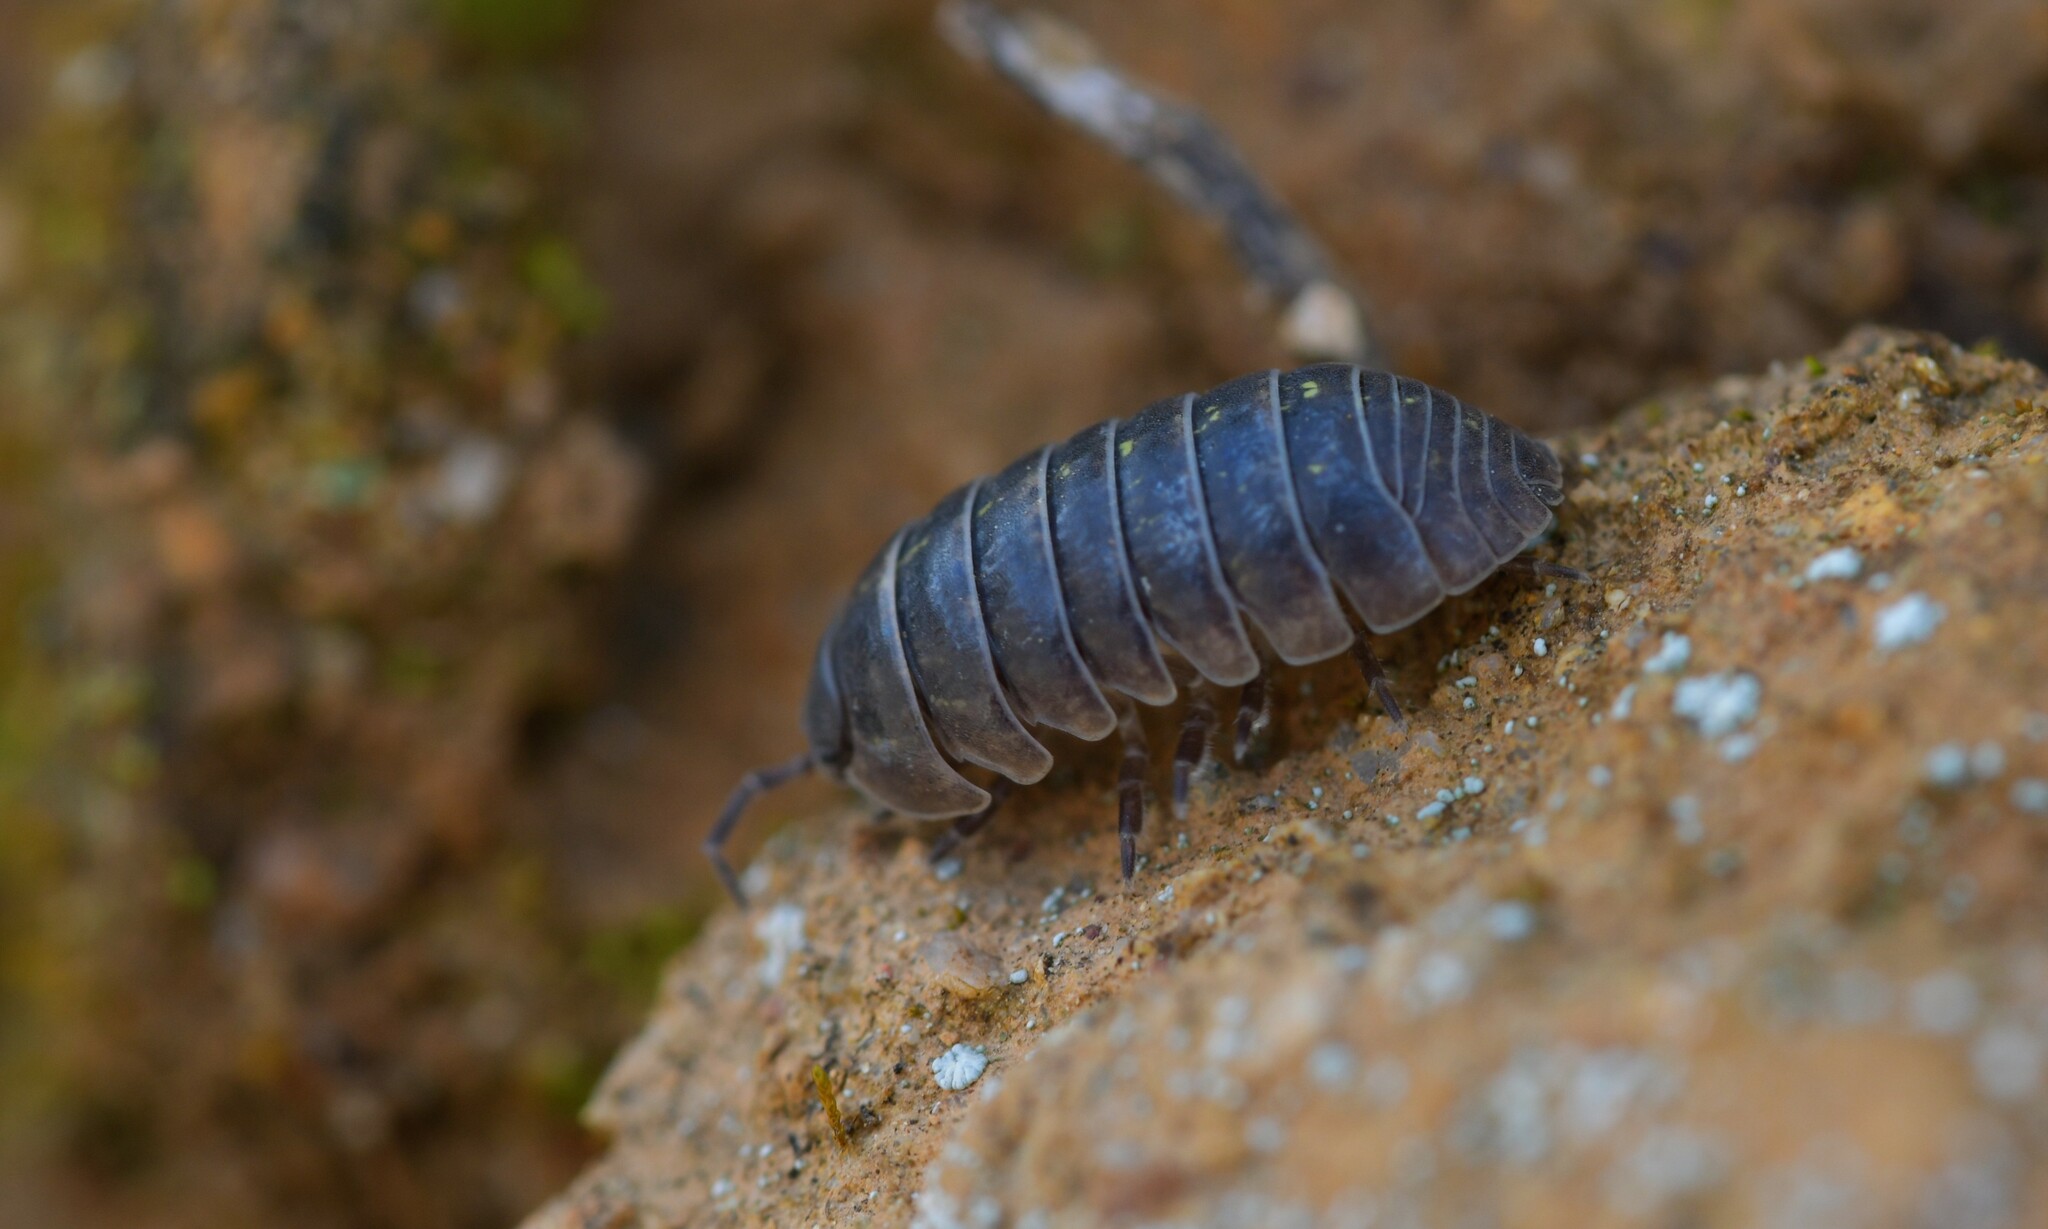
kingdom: Animalia
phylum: Arthropoda
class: Malacostraca
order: Isopoda
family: Armadillidiidae
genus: Armadillidium
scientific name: Armadillidium vulgare
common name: Common pill woodlouse
